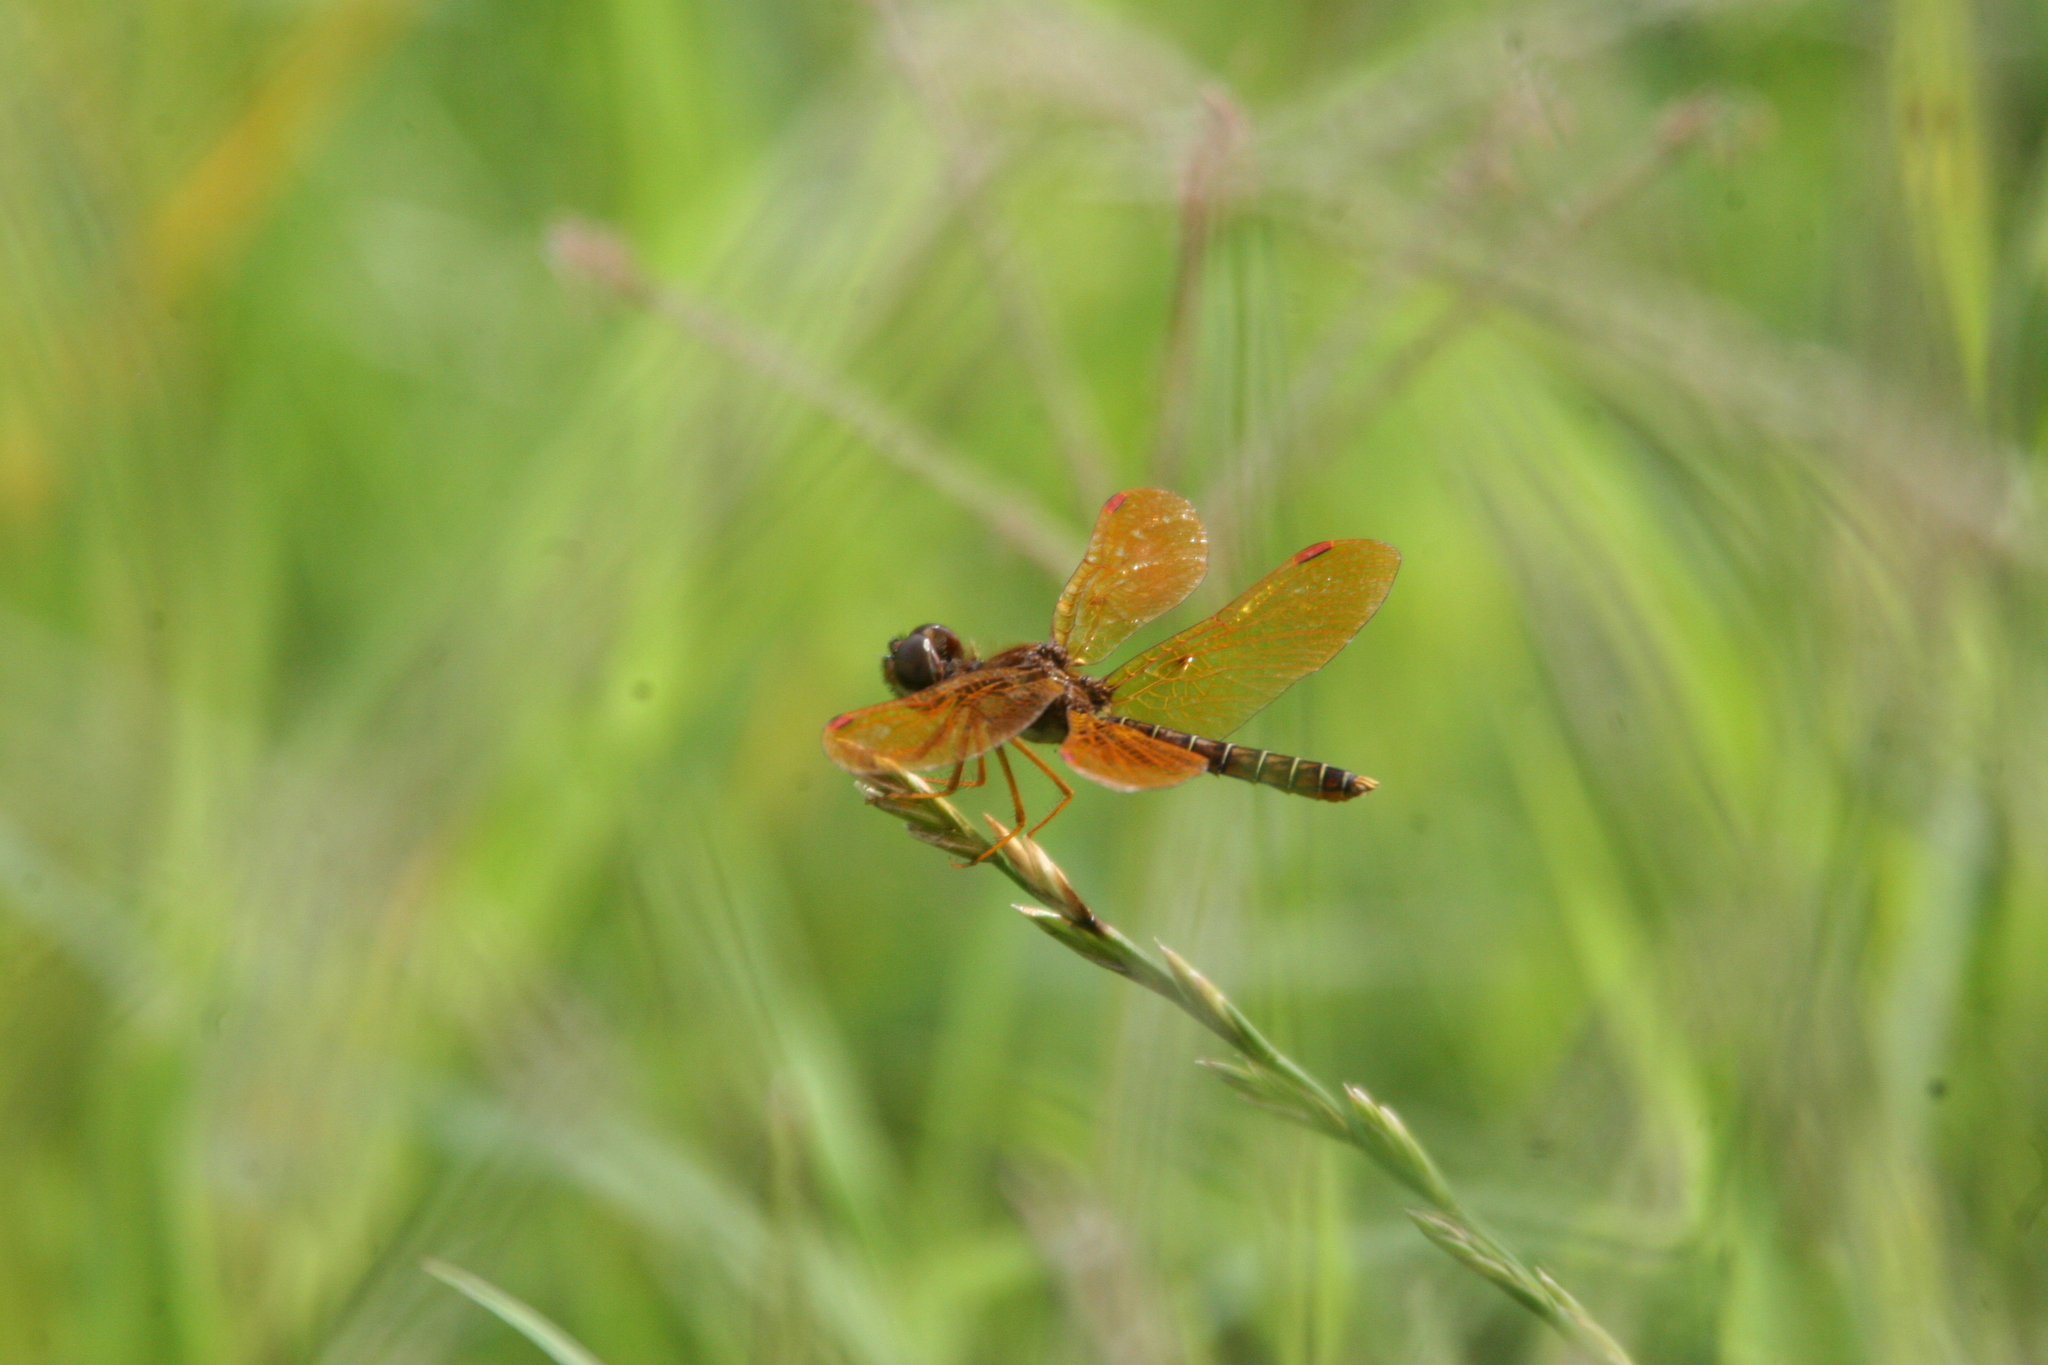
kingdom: Animalia
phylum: Arthropoda
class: Insecta
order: Odonata
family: Libellulidae
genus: Perithemis
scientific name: Perithemis tenera
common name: Eastern amberwing
